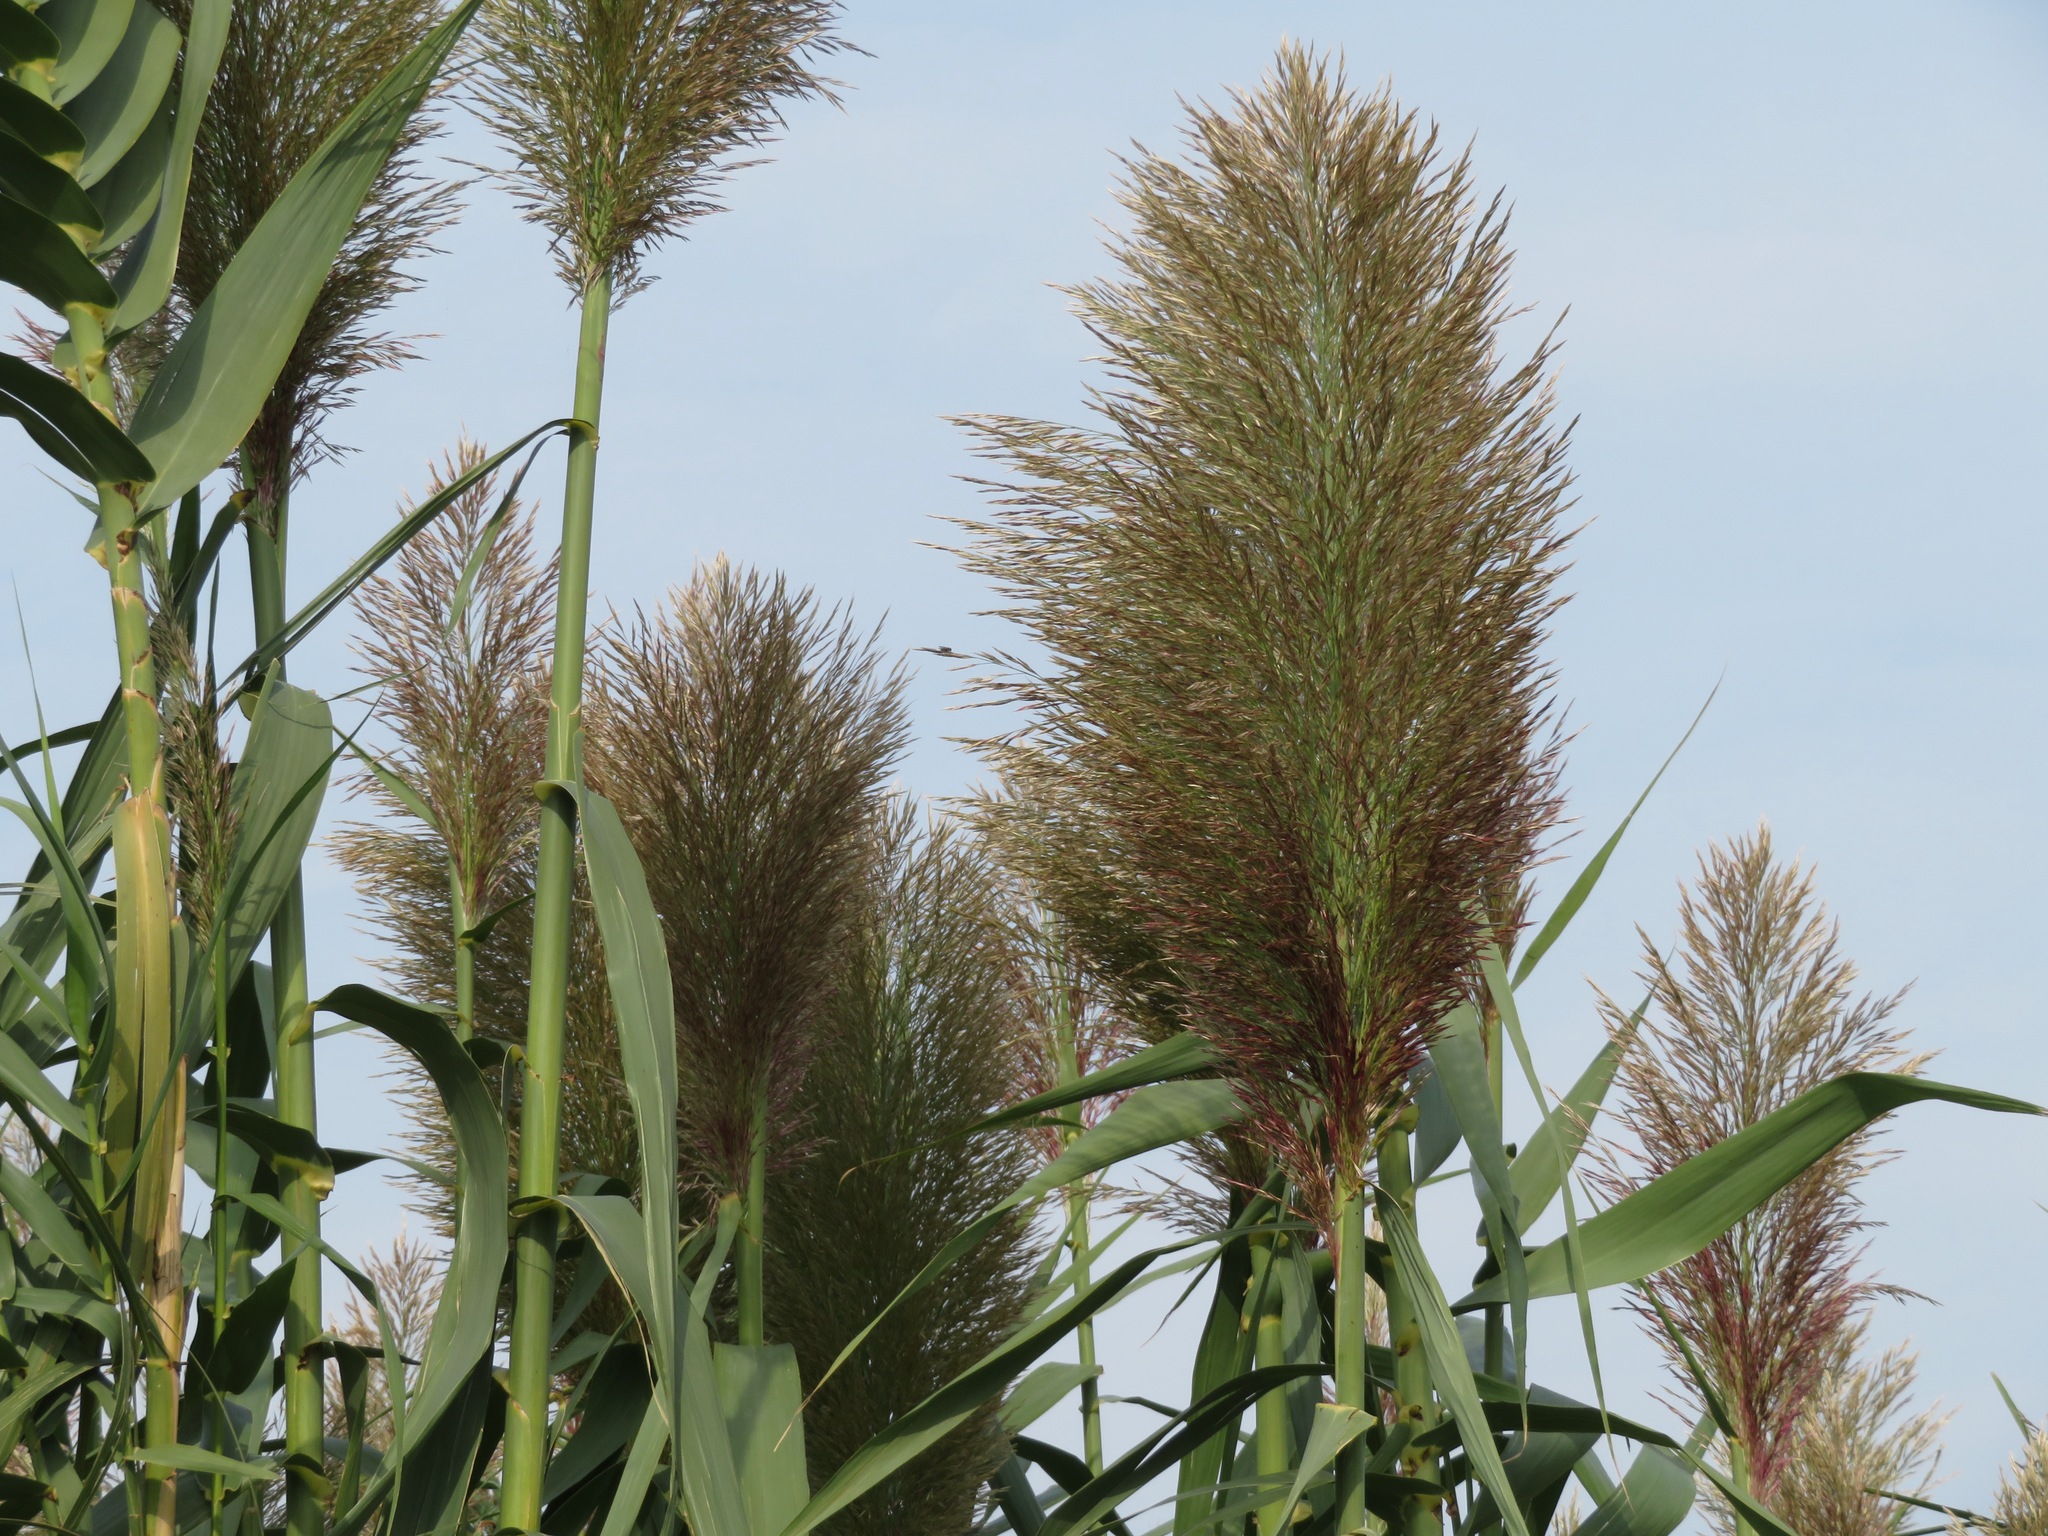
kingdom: Plantae
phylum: Tracheophyta
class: Liliopsida
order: Poales
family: Poaceae
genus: Arundo
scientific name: Arundo donax
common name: Giant reed
